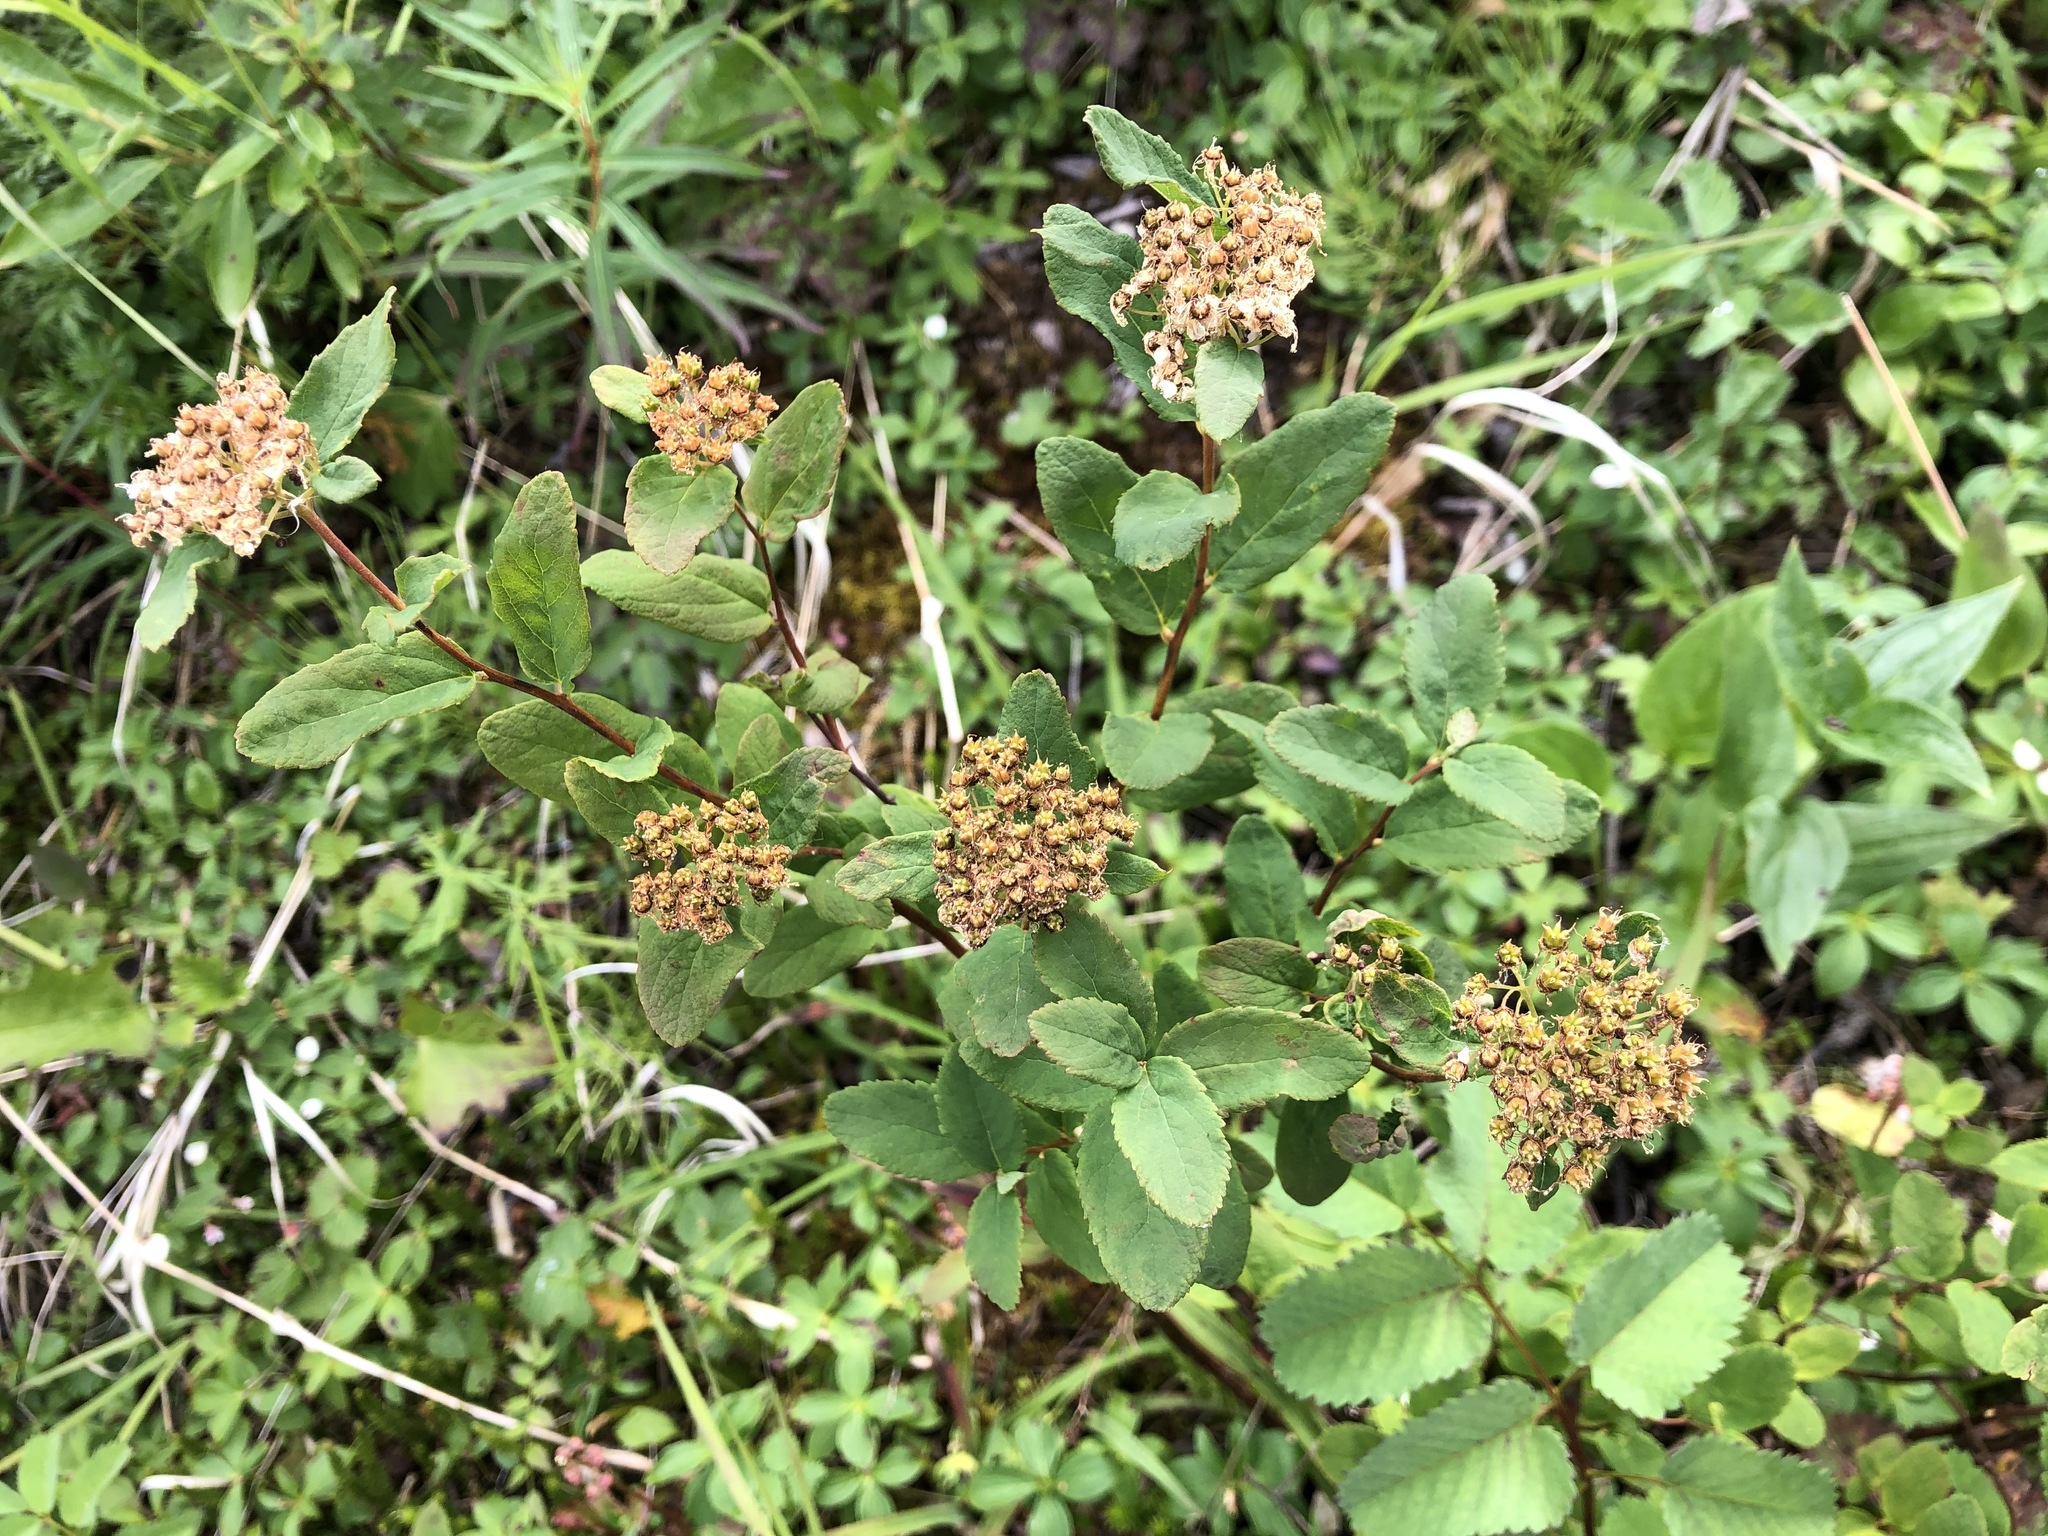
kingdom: Plantae
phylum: Tracheophyta
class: Magnoliopsida
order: Rosales
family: Rosaceae
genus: Spiraea
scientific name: Spiraea stevenii
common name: Steven's meadowsweet
